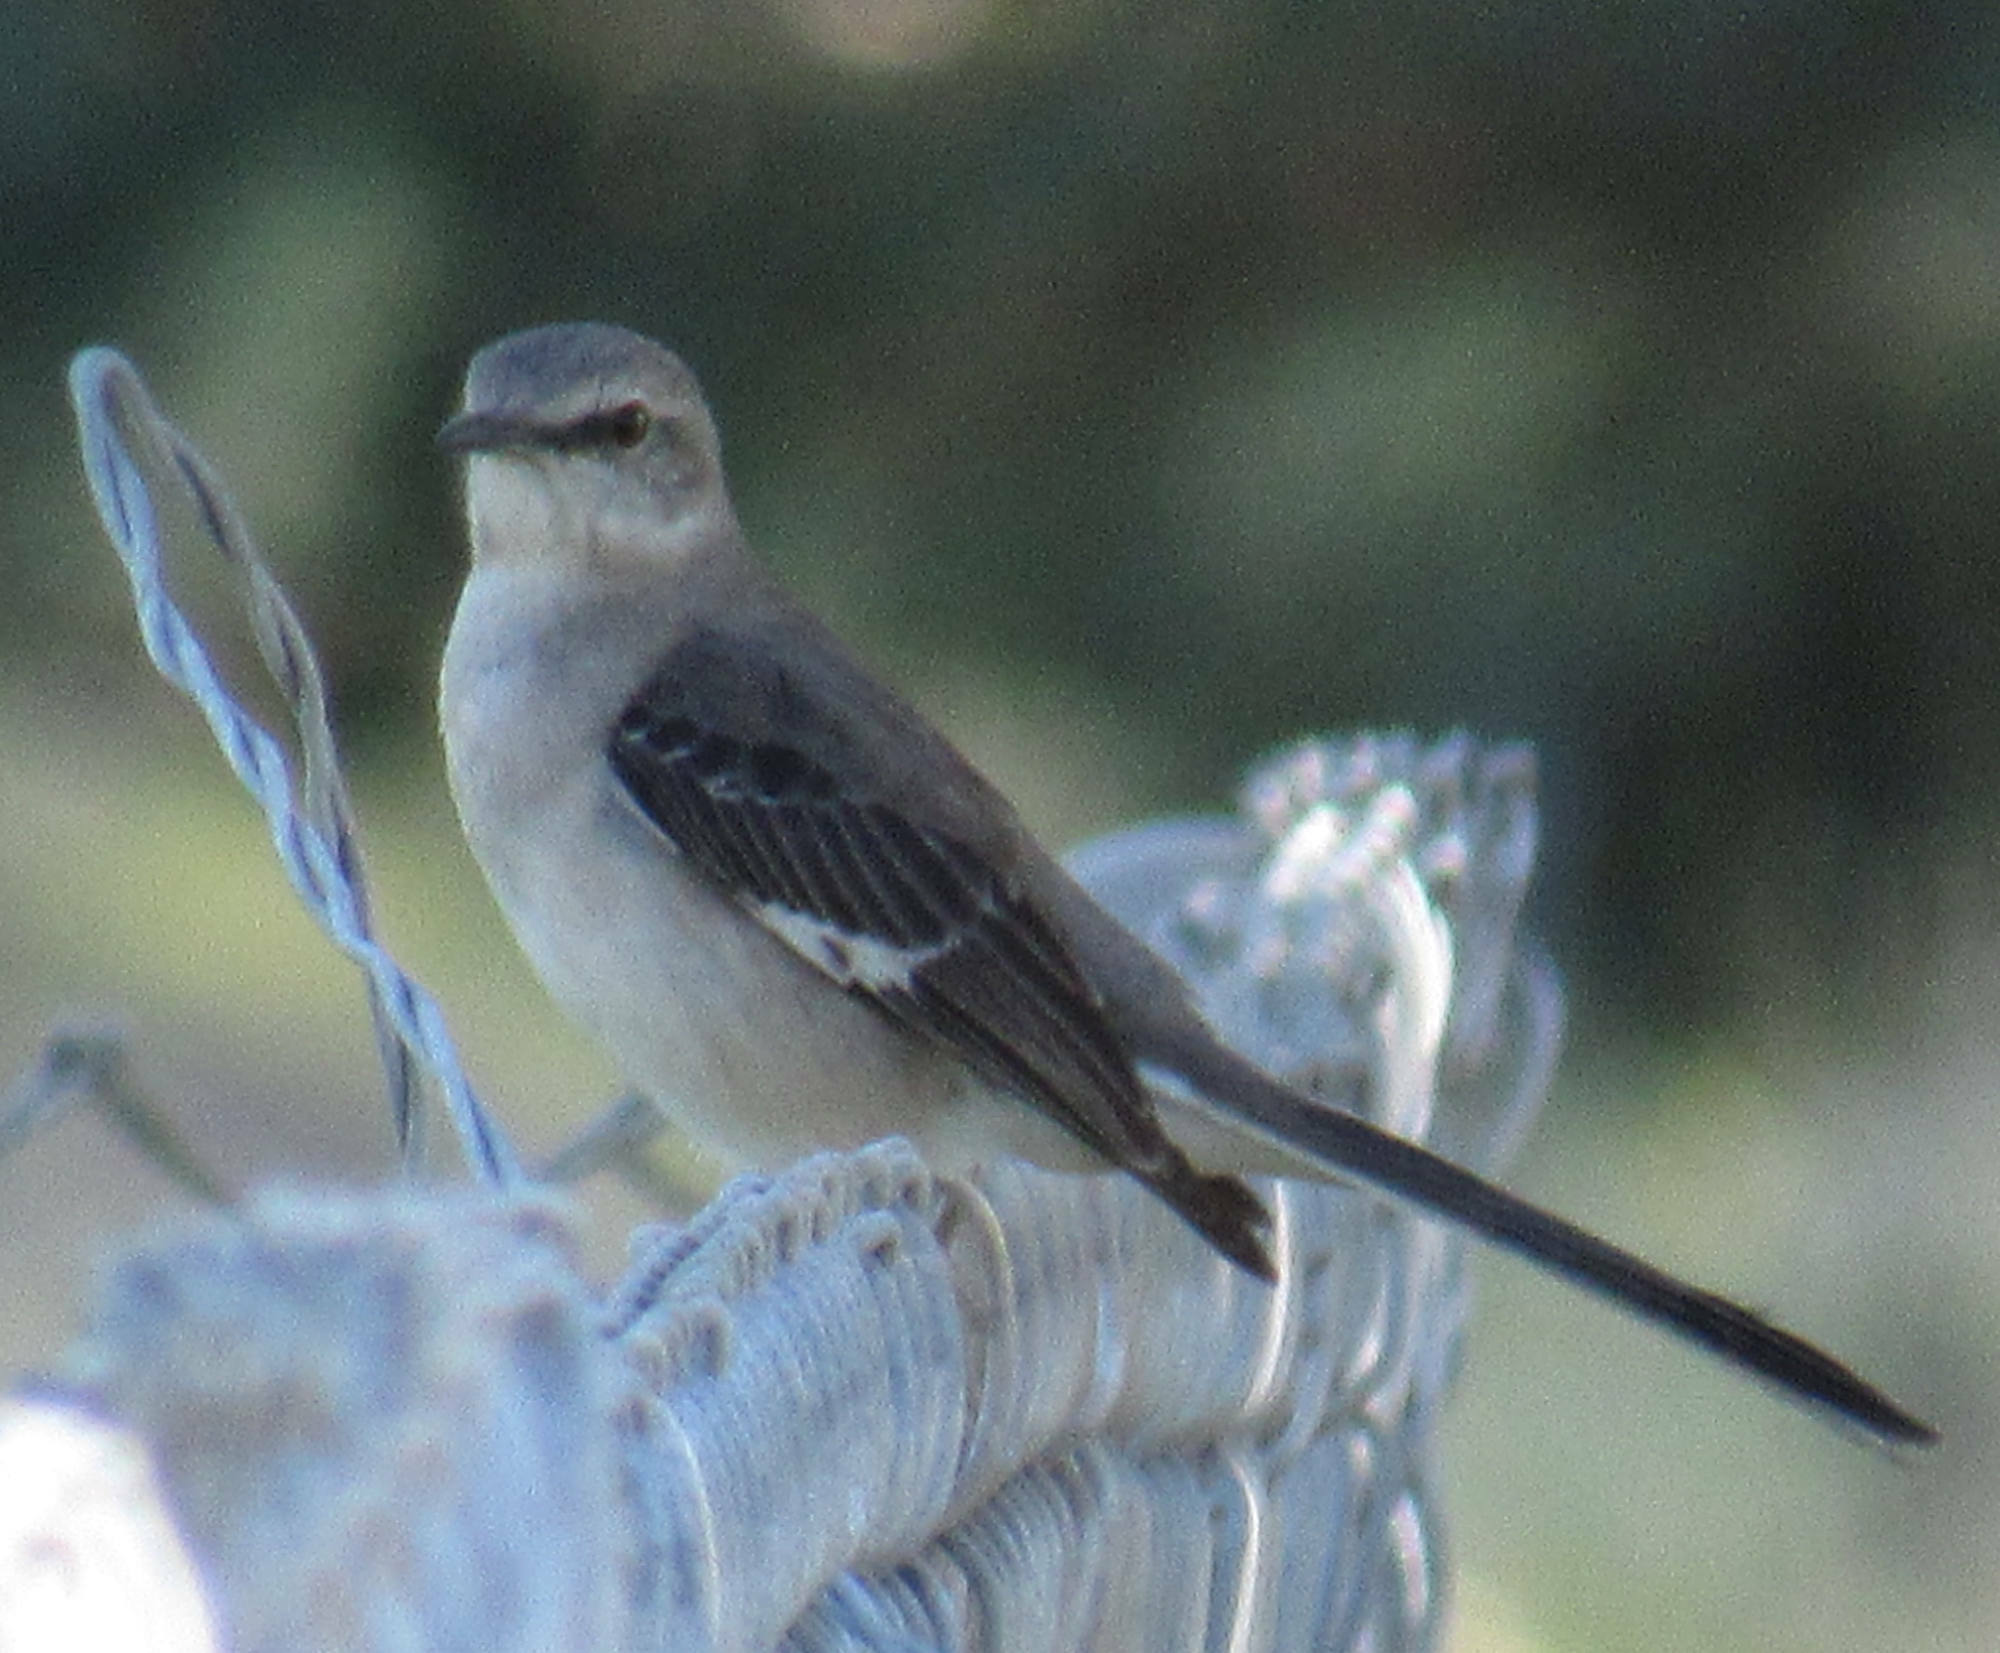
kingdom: Animalia
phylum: Chordata
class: Aves
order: Passeriformes
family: Mimidae
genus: Mimus
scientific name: Mimus polyglottos
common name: Northern mockingbird
